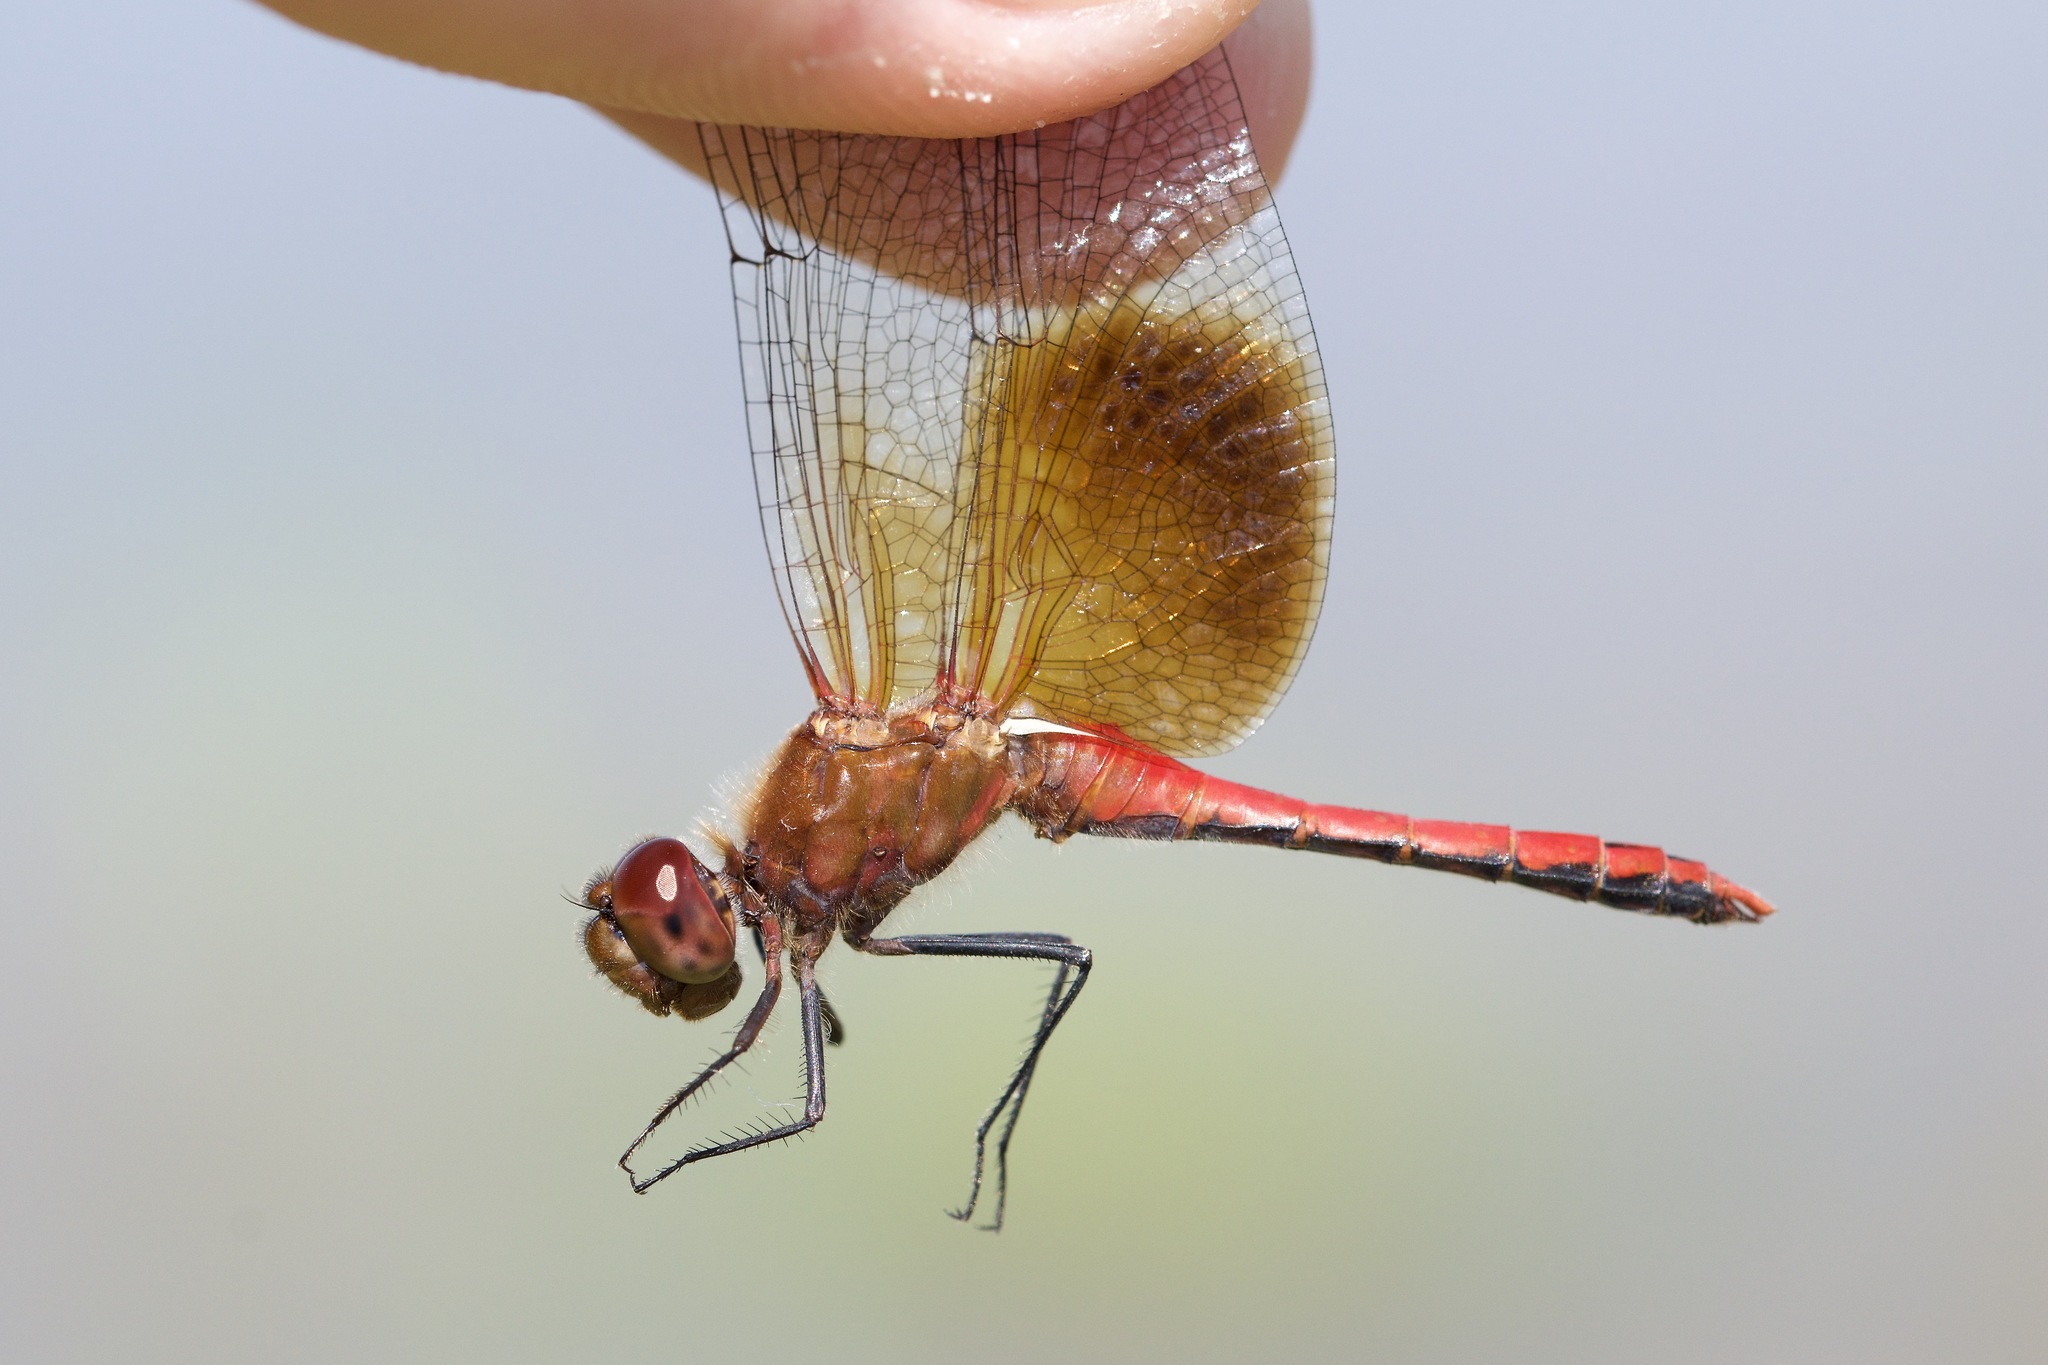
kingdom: Animalia
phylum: Arthropoda
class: Insecta
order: Odonata
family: Libellulidae
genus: Sympetrum
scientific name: Sympetrum semicinctum
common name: Band-winged meadowhawk
